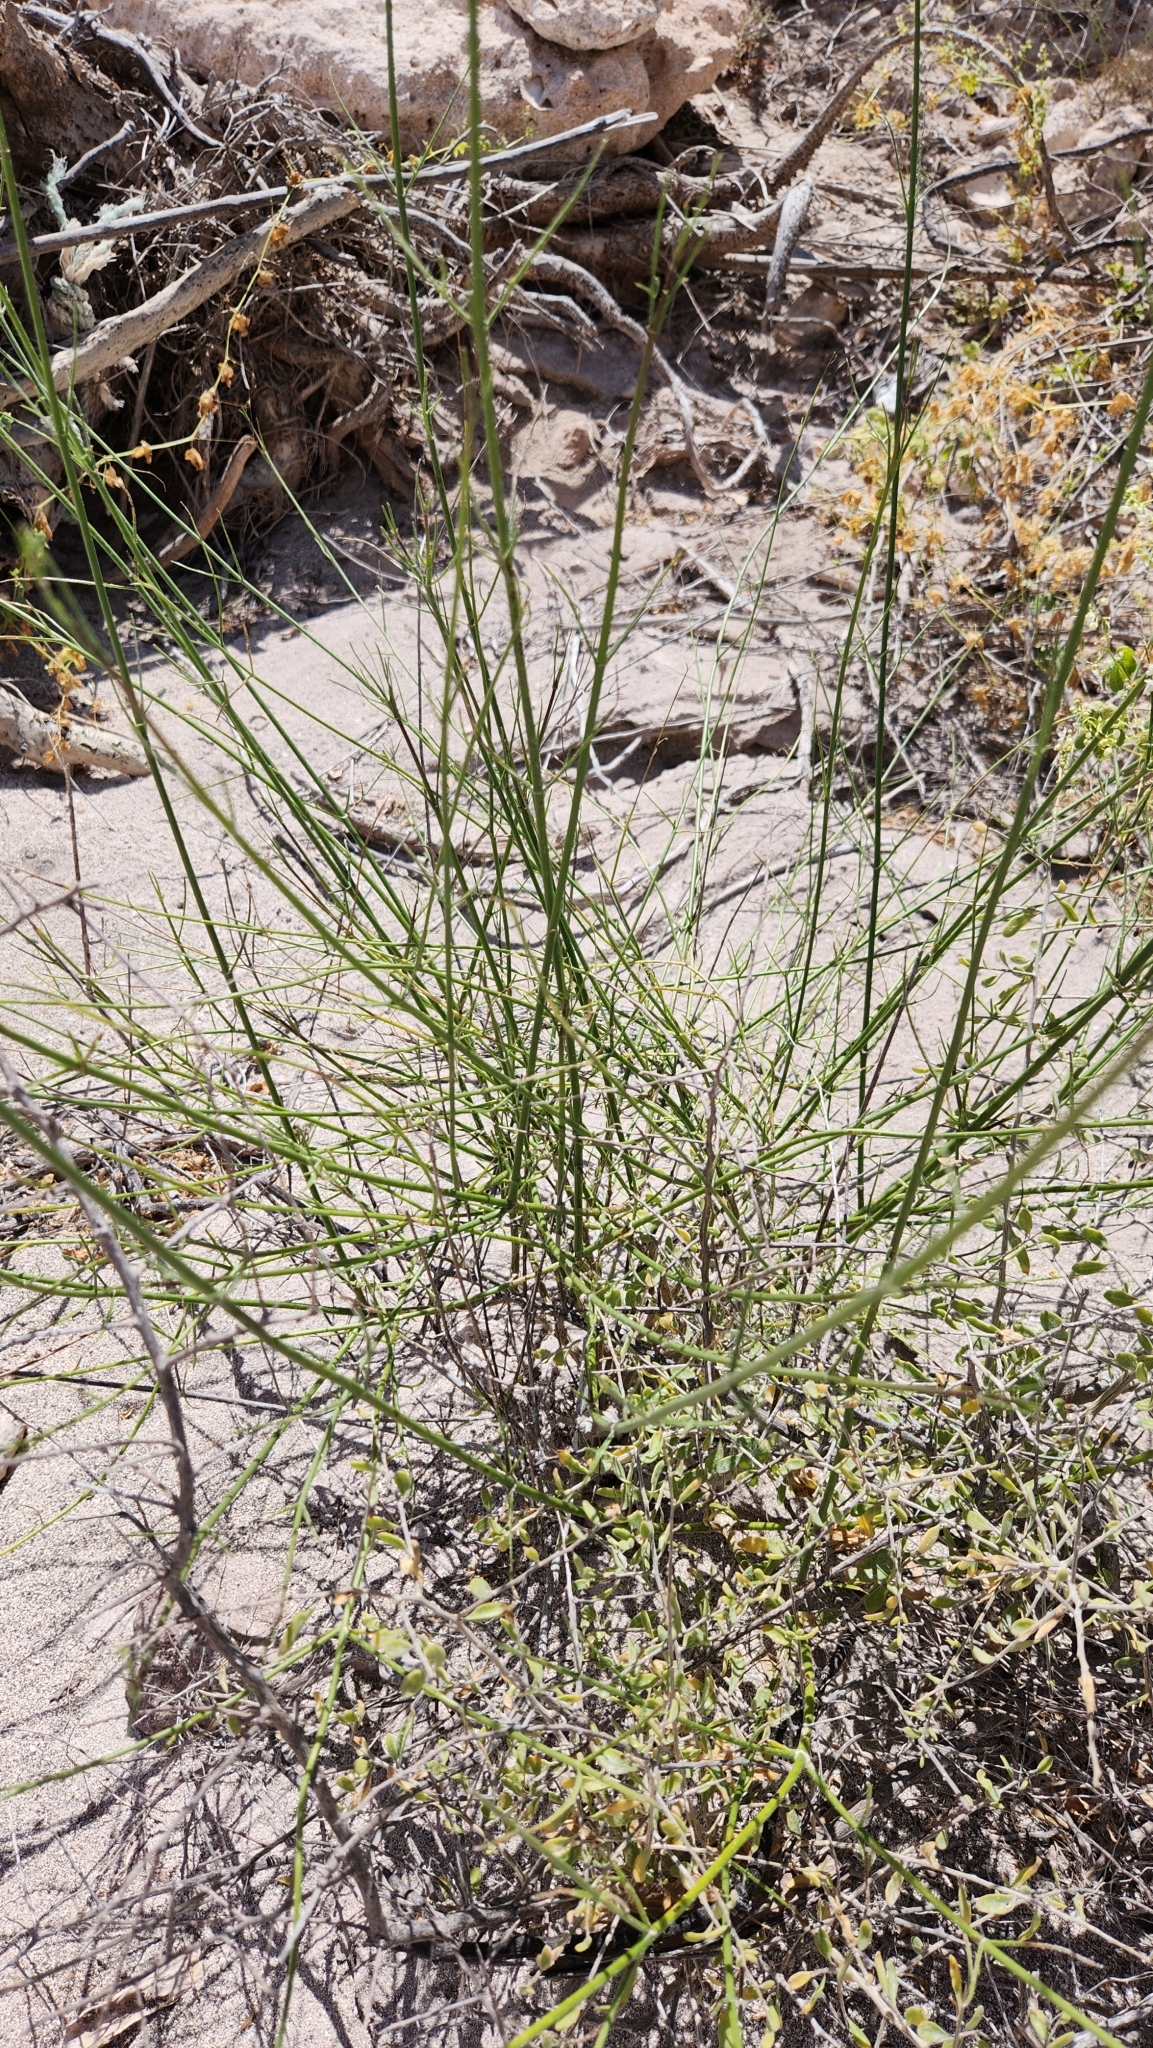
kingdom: Plantae
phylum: Tracheophyta
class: Magnoliopsida
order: Asterales
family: Asteraceae
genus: Bebbia
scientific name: Bebbia juncea
